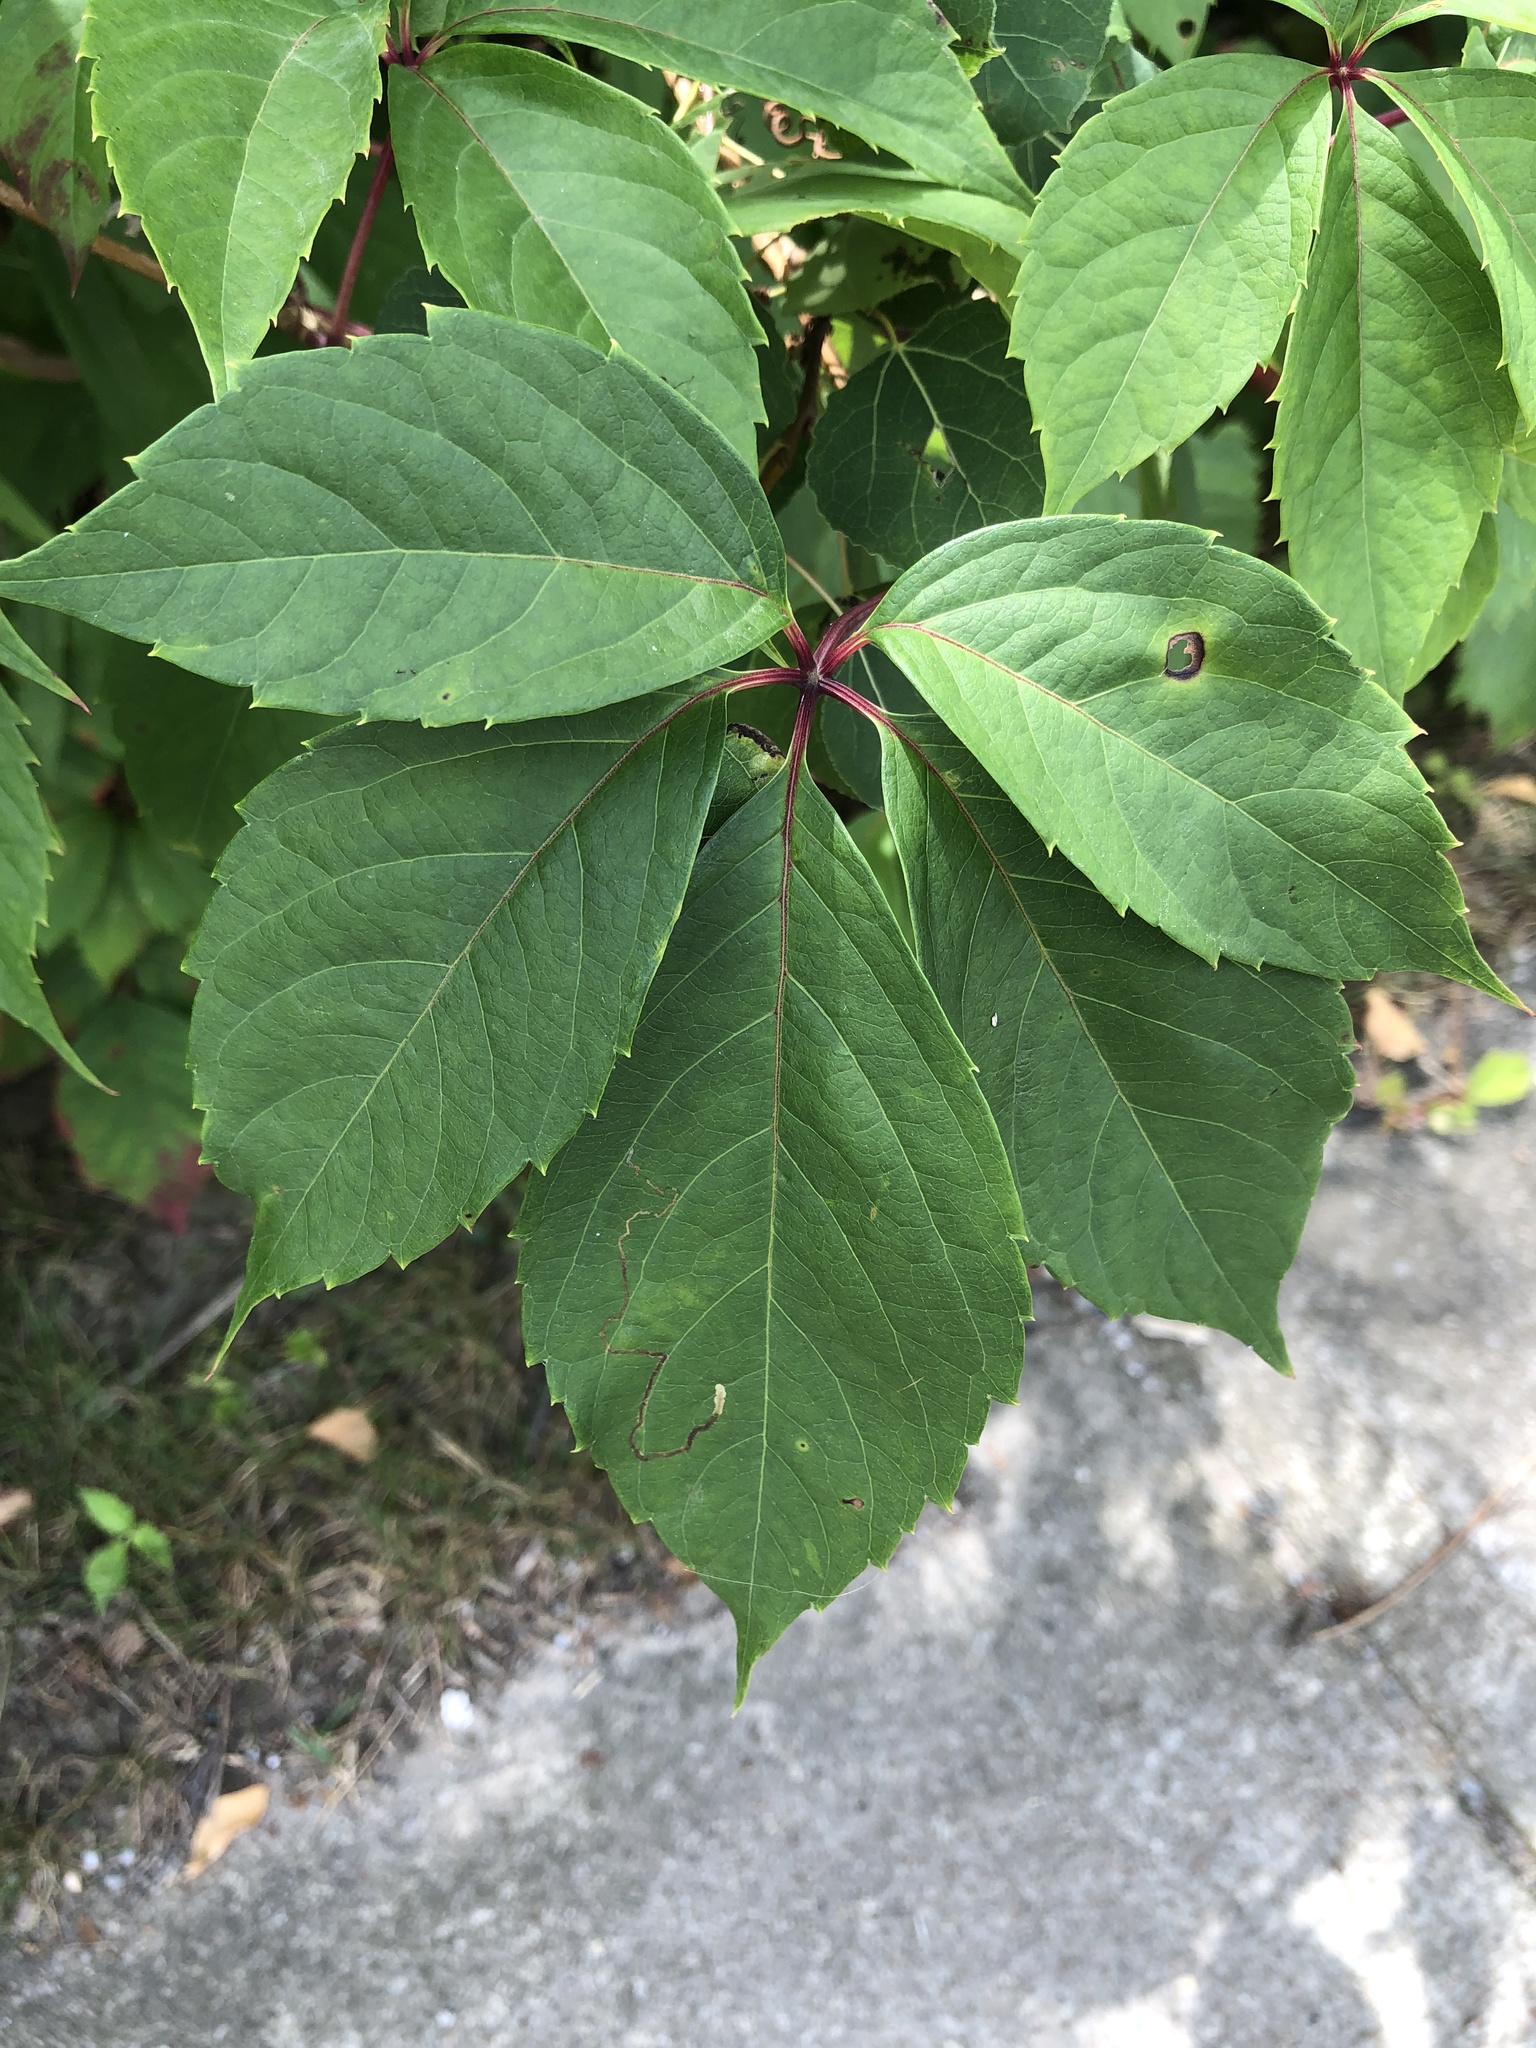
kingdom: Plantae
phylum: Tracheophyta
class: Magnoliopsida
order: Vitales
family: Vitaceae
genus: Parthenocissus
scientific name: Parthenocissus quinquefolia
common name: Virginia-creeper
